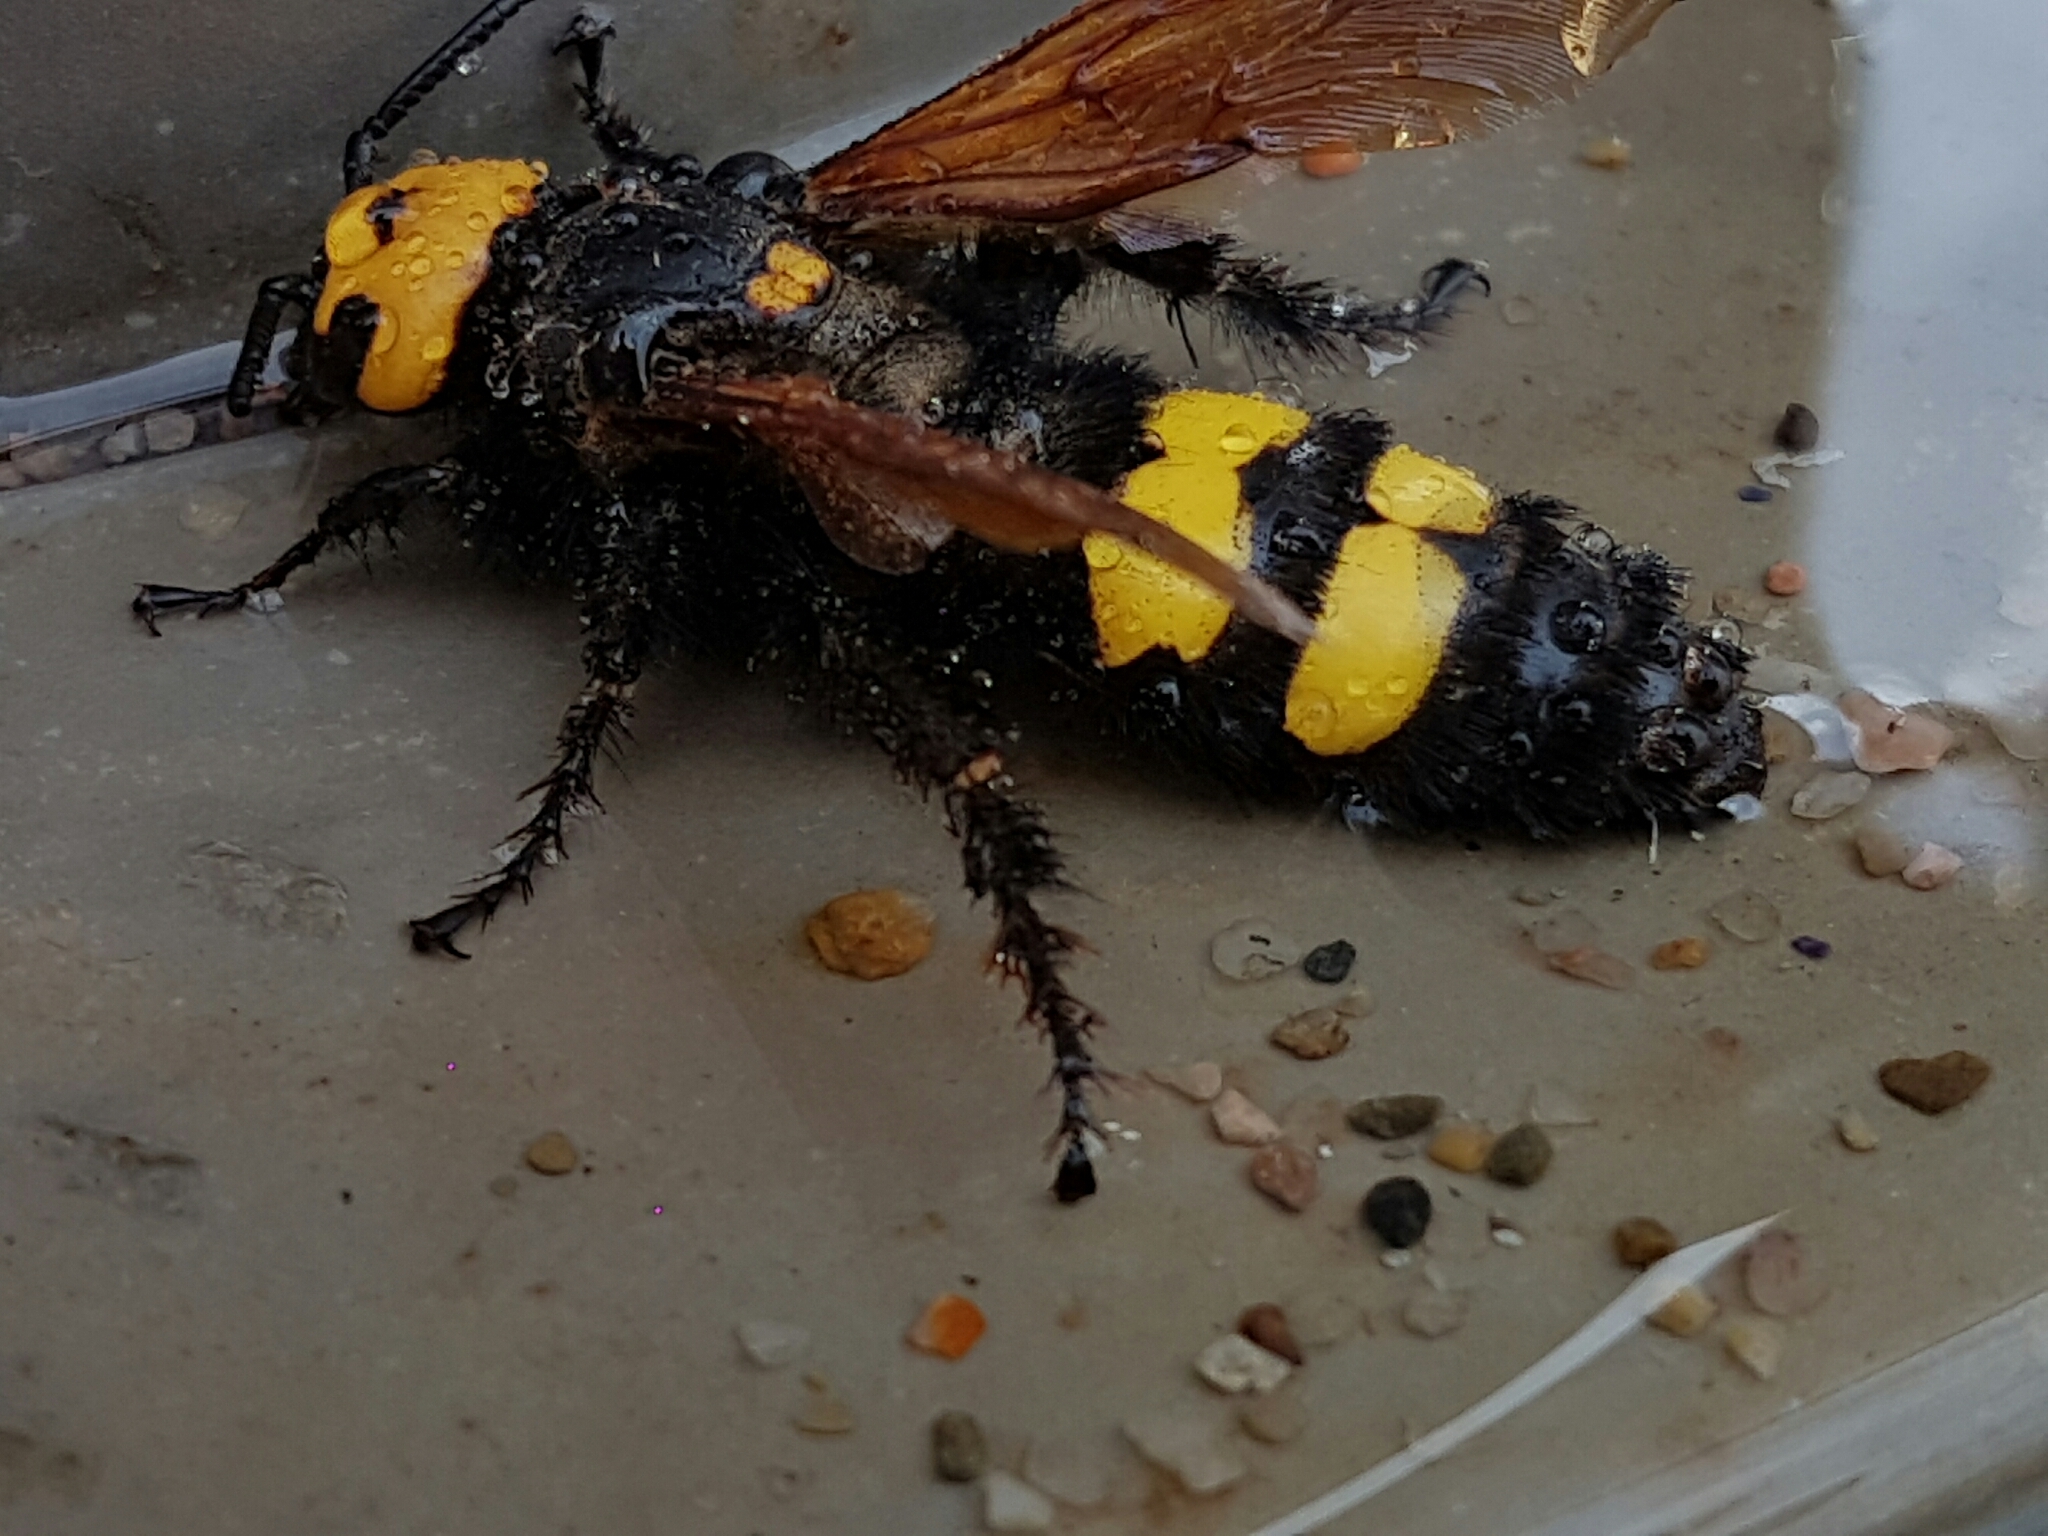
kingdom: Animalia
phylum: Arthropoda
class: Insecta
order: Hymenoptera
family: Scoliidae
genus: Megascolia
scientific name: Megascolia maculata
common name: Mammoth wasp
